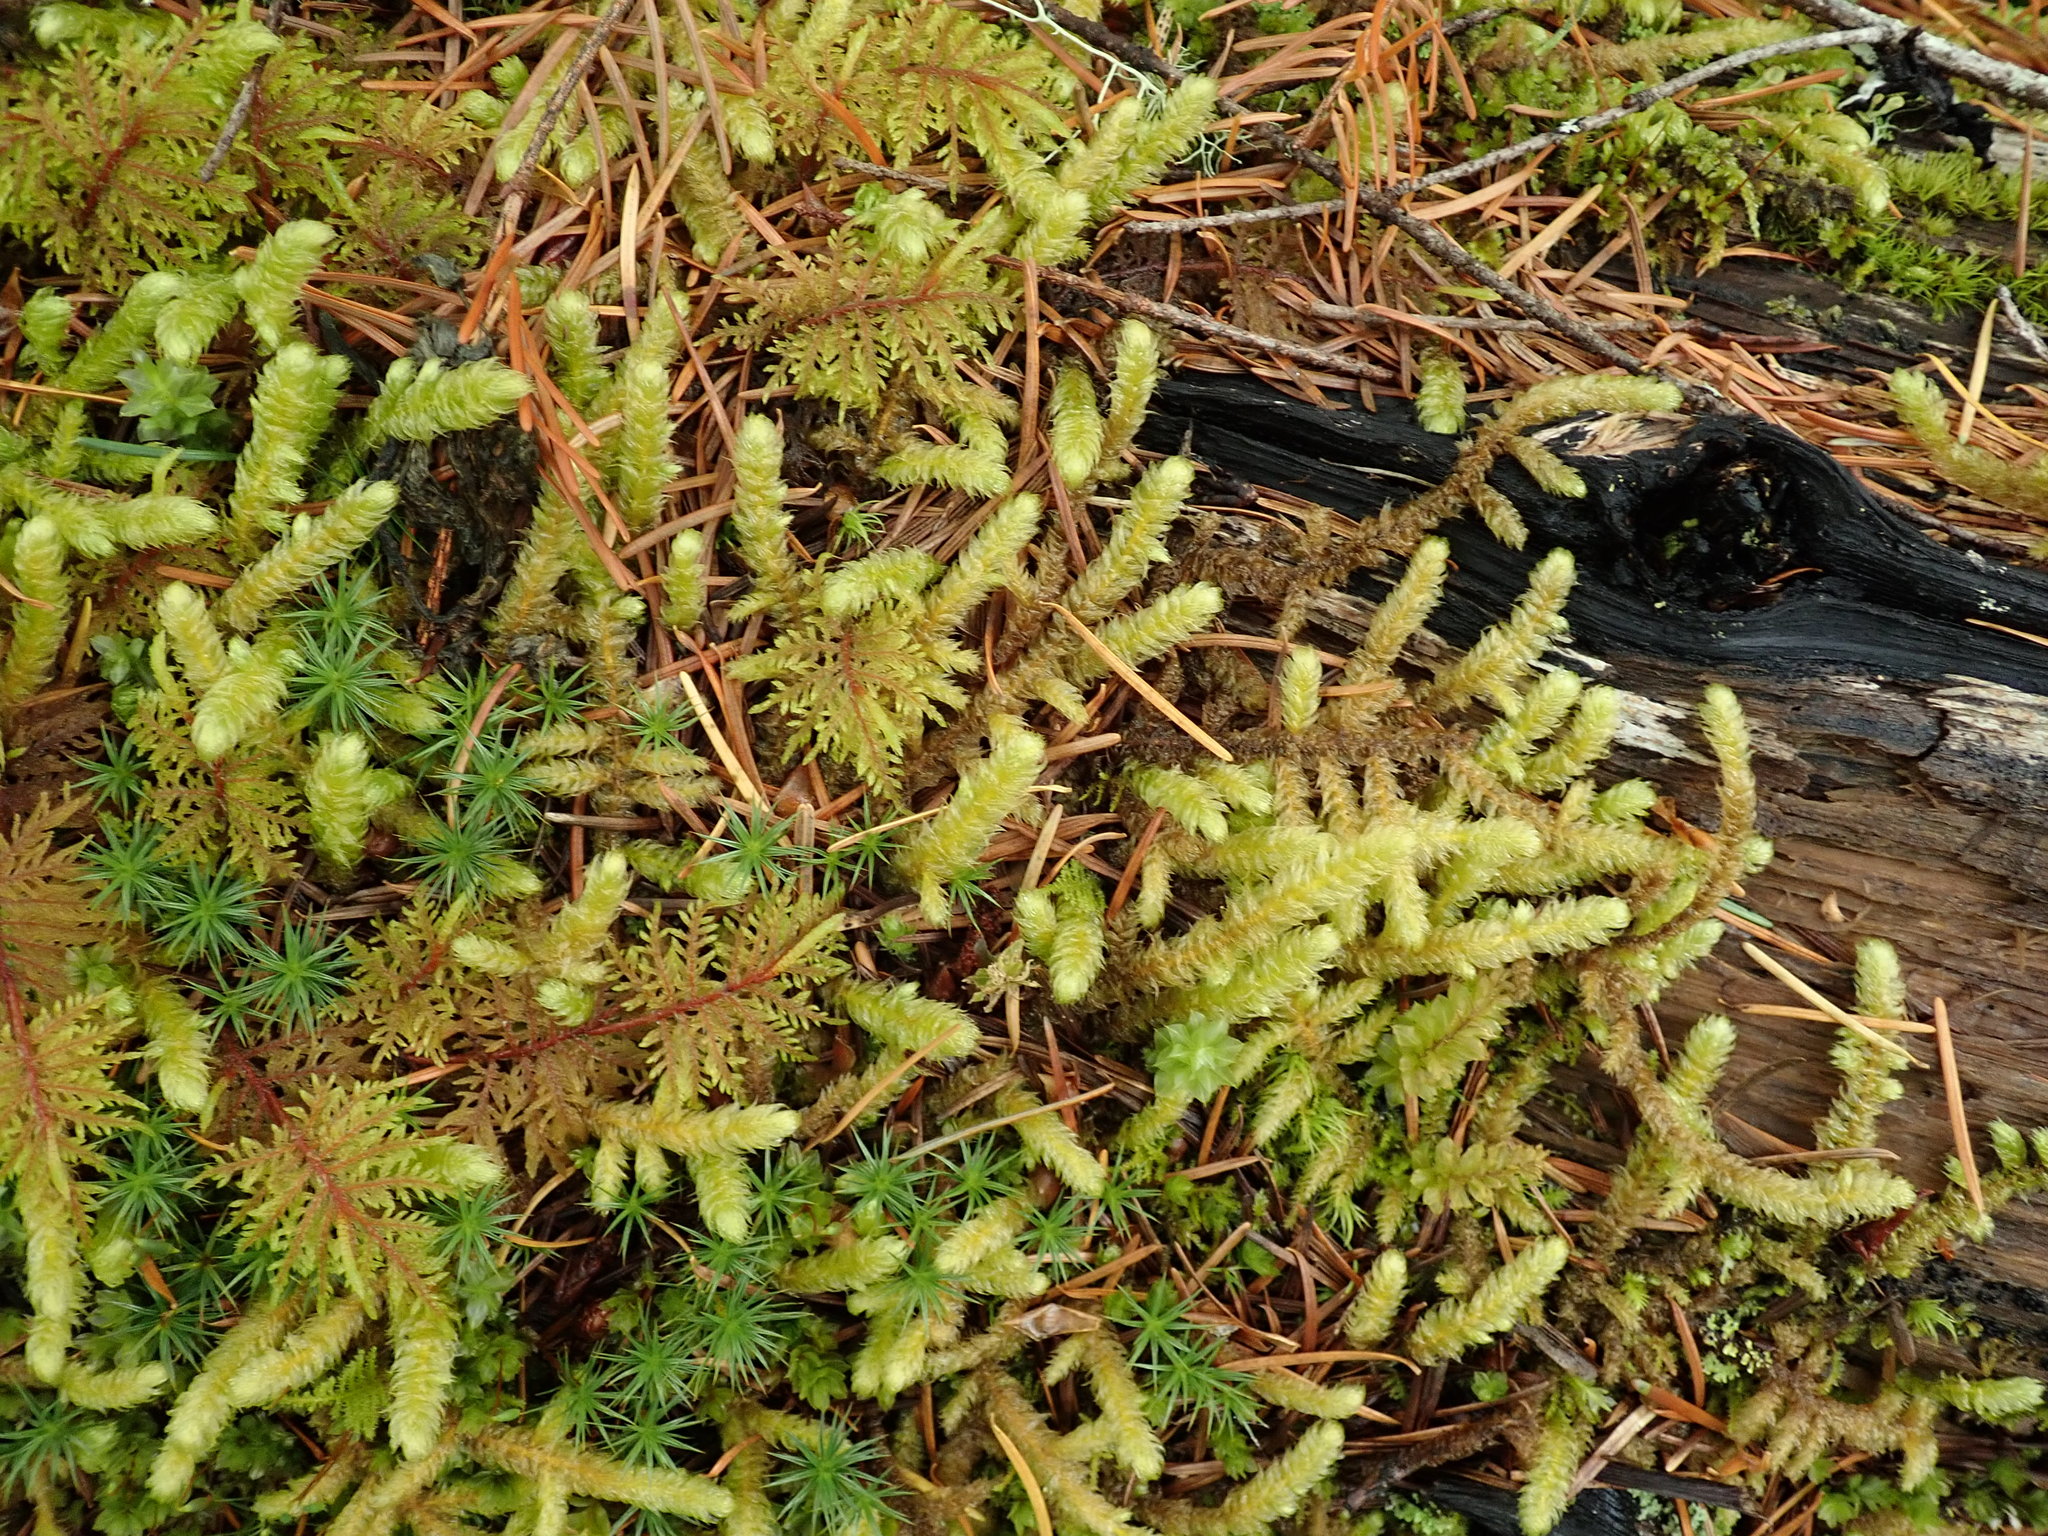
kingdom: Plantae
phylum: Bryophyta
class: Bryopsida
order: Hypnales
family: Hylocomiaceae
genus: Rhytidiopsis
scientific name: Rhytidiopsis robusta
